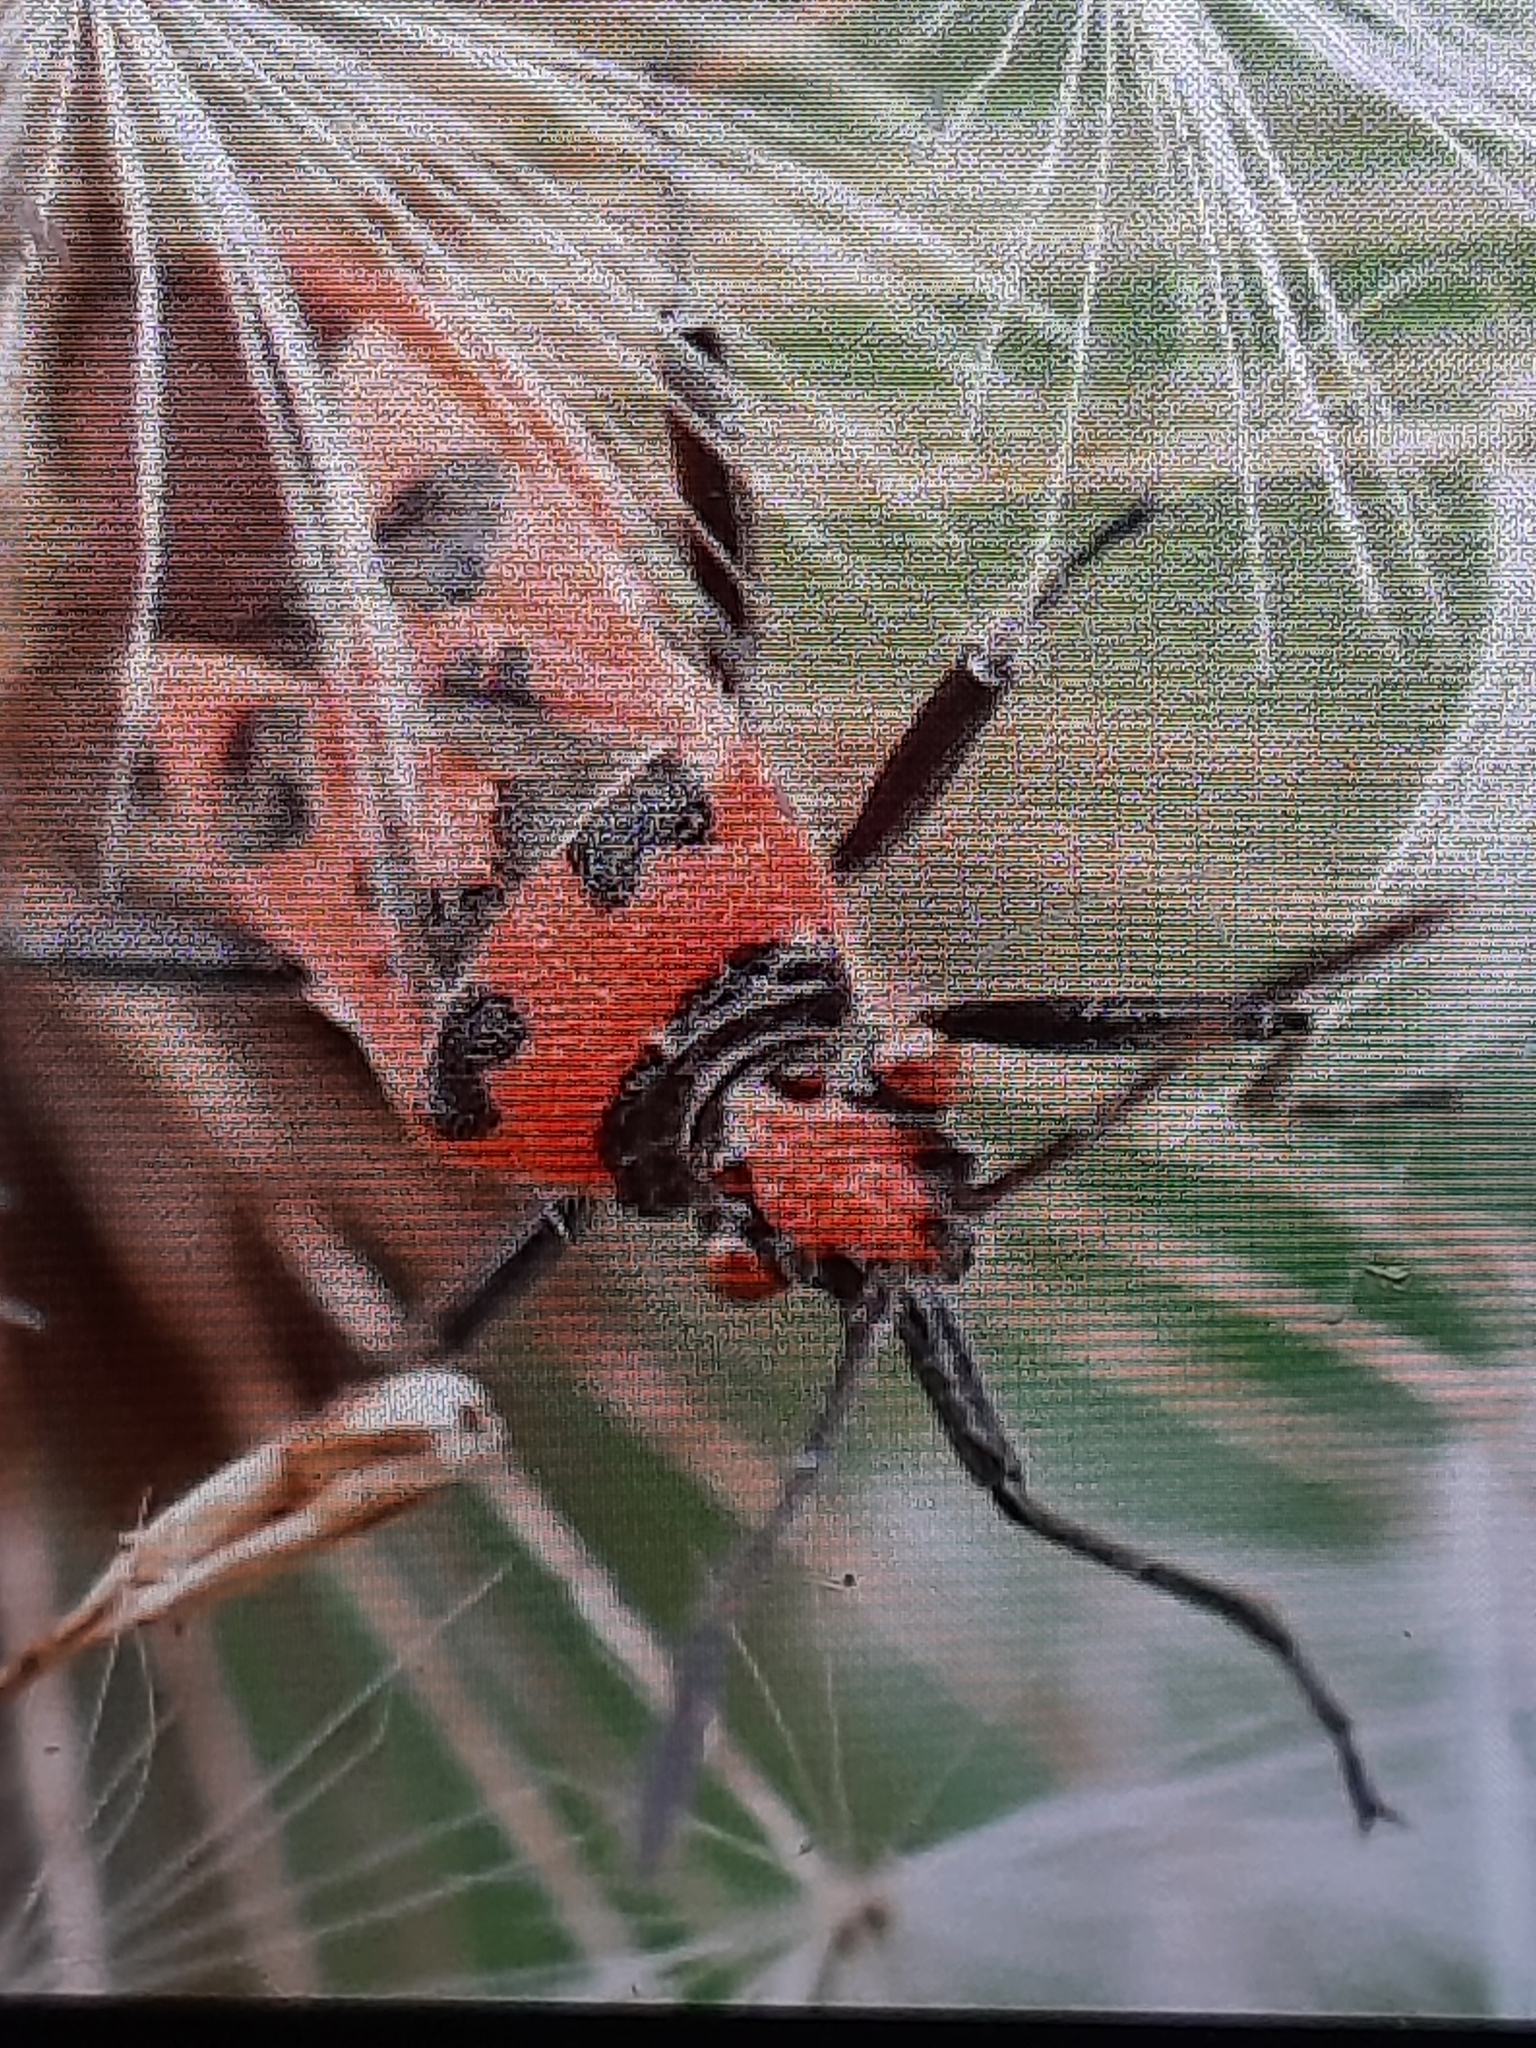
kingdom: Animalia
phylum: Arthropoda
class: Insecta
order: Hemiptera
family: Rhopalidae
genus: Corizus
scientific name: Corizus hyoscyami
